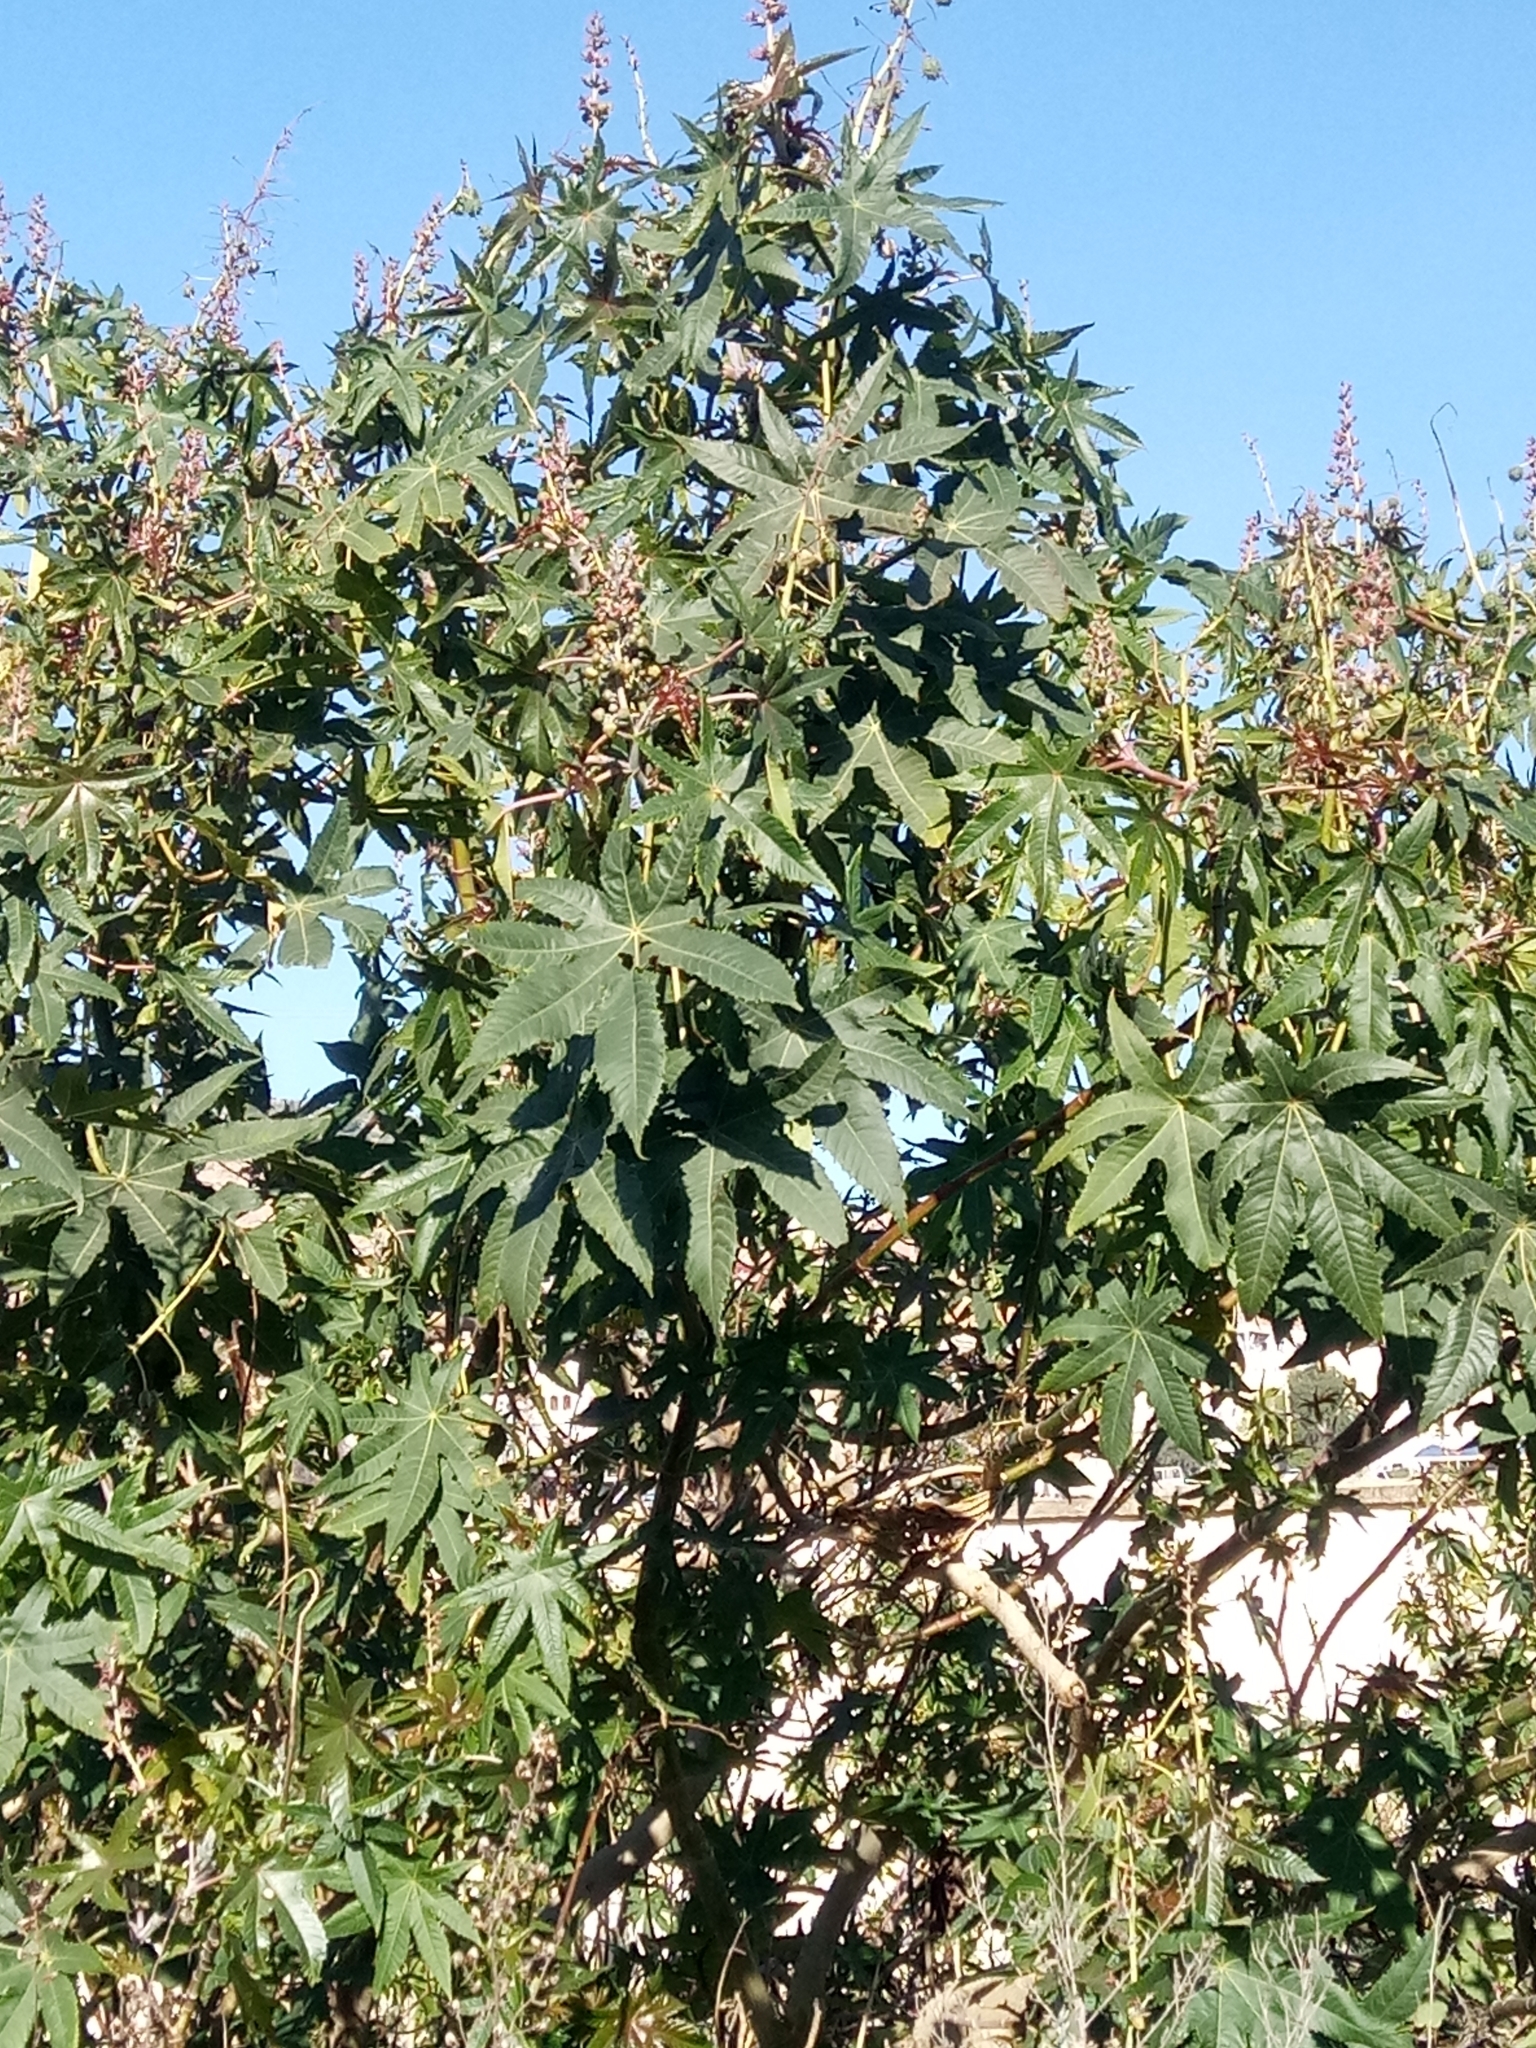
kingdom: Plantae
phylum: Tracheophyta
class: Magnoliopsida
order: Malpighiales
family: Euphorbiaceae
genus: Ricinus
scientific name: Ricinus communis
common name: Castor-oil-plant
